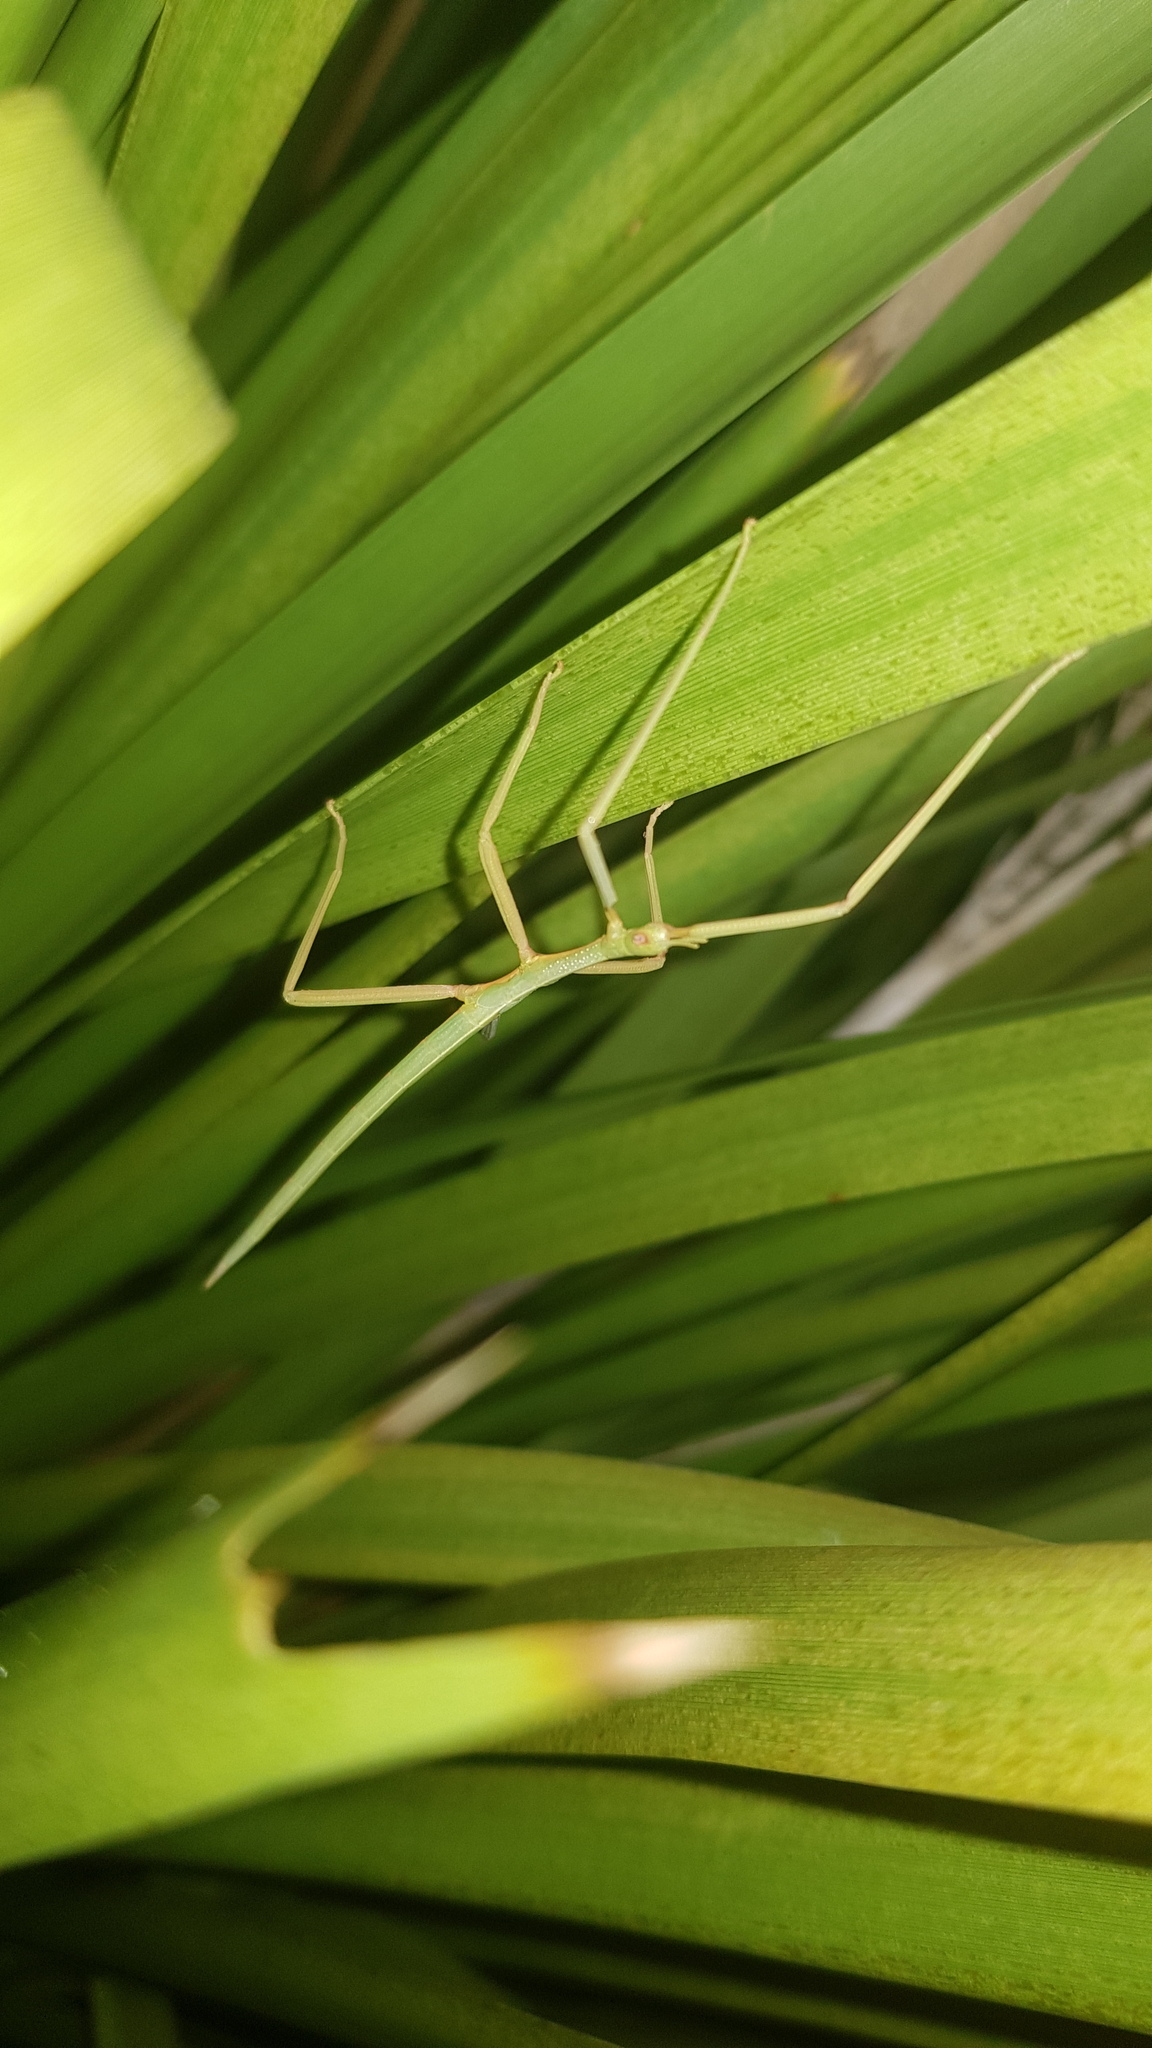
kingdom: Animalia
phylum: Arthropoda
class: Insecta
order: Phasmida
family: Phasmatidae
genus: Didymuria
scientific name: Didymuria violescens
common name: Spur-legged stick-insect
